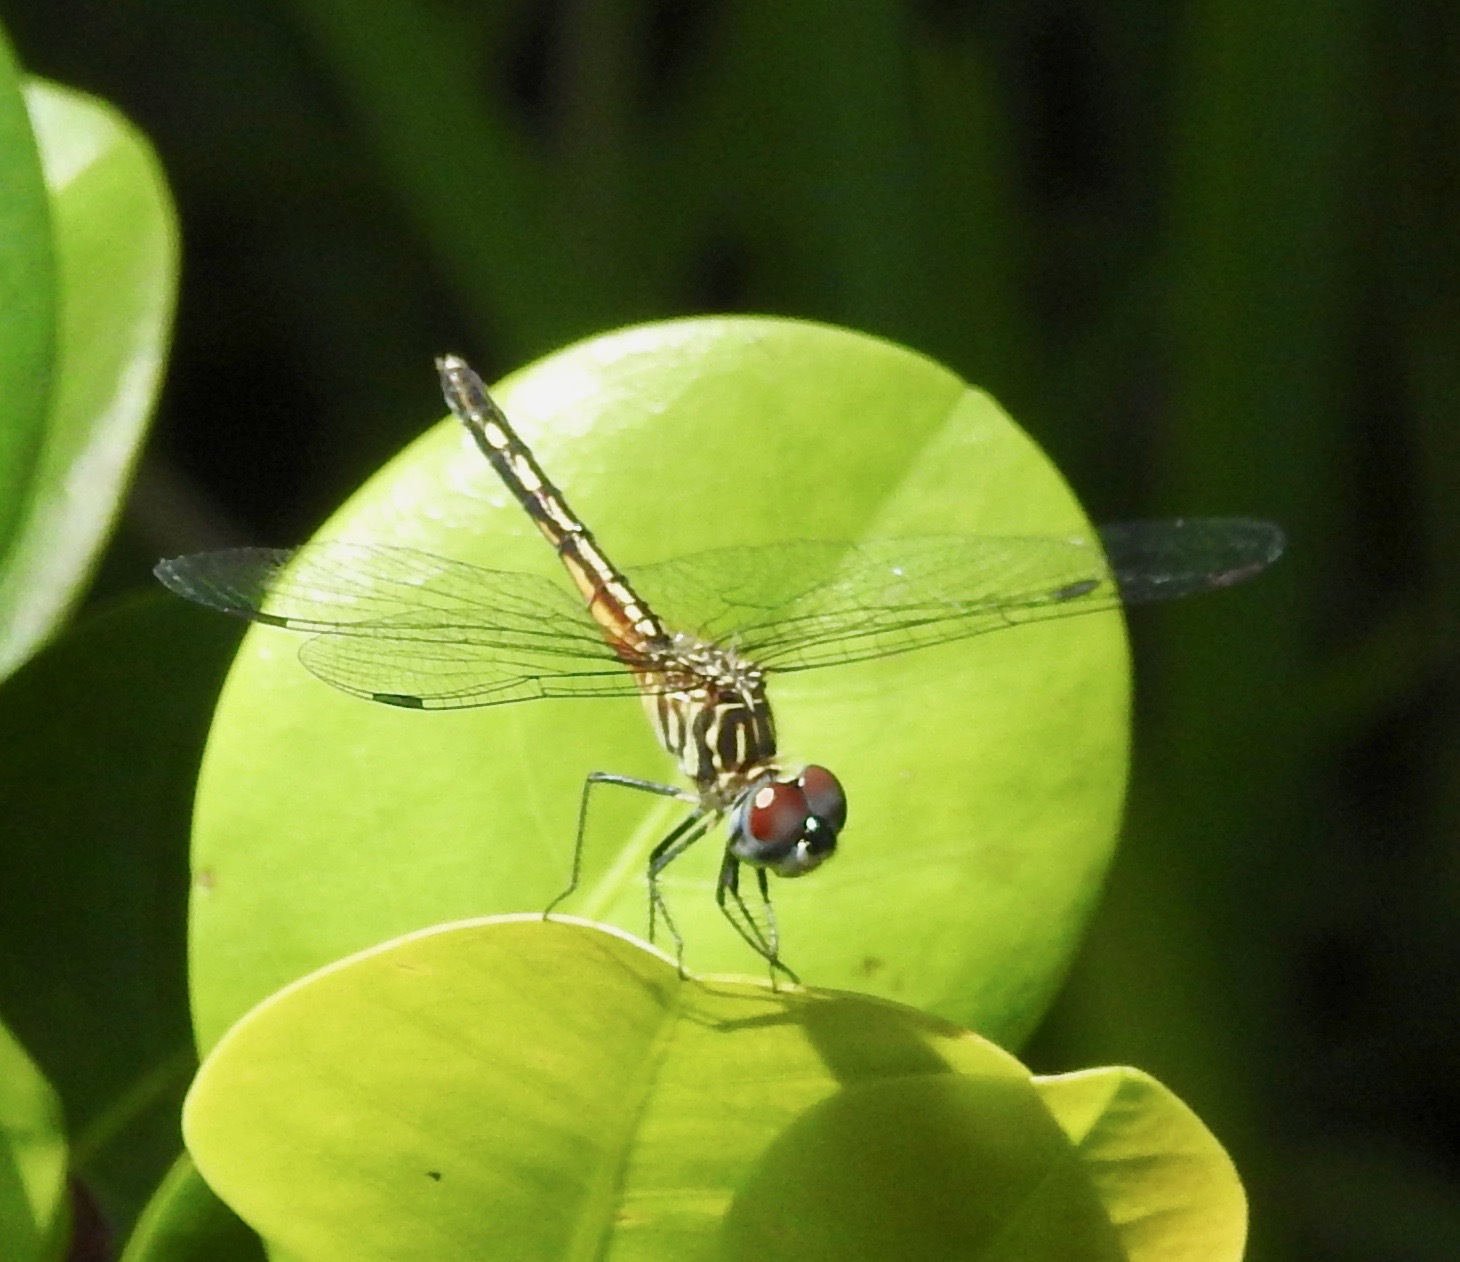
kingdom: Animalia
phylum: Arthropoda
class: Insecta
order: Odonata
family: Libellulidae
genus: Pachydiplax
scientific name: Pachydiplax longipennis
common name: Blue dasher
